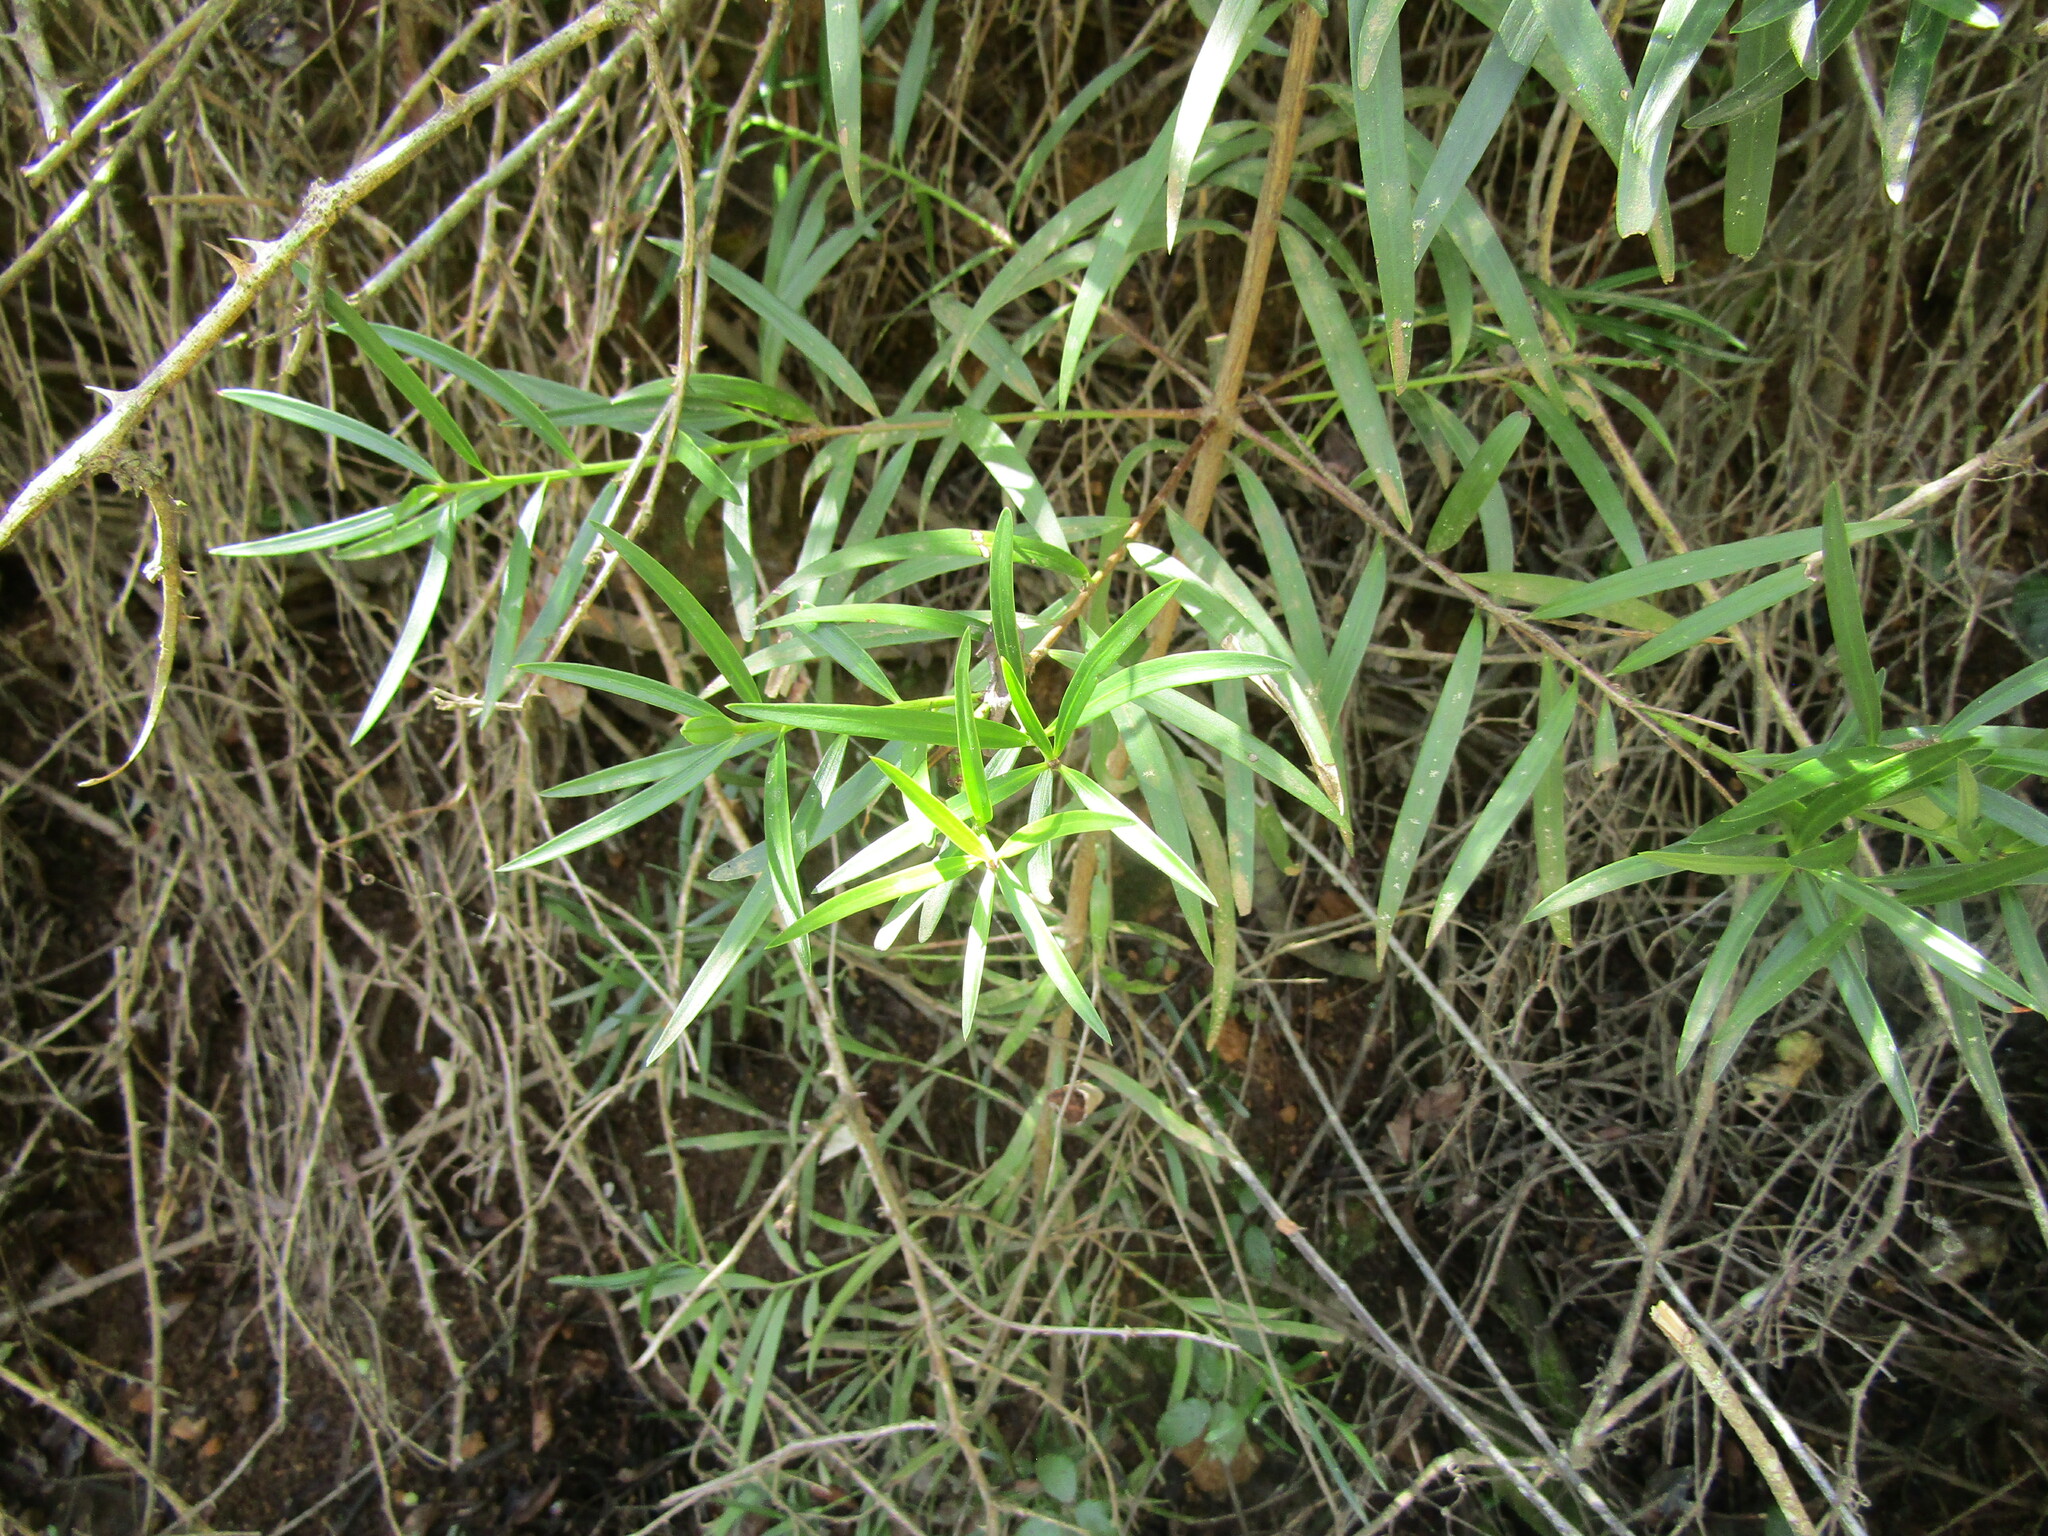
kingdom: Plantae
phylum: Tracheophyta
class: Pinopsida
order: Pinales
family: Podocarpaceae
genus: Podocarpus
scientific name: Podocarpus salignus
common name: Willow-leaf podocarp
